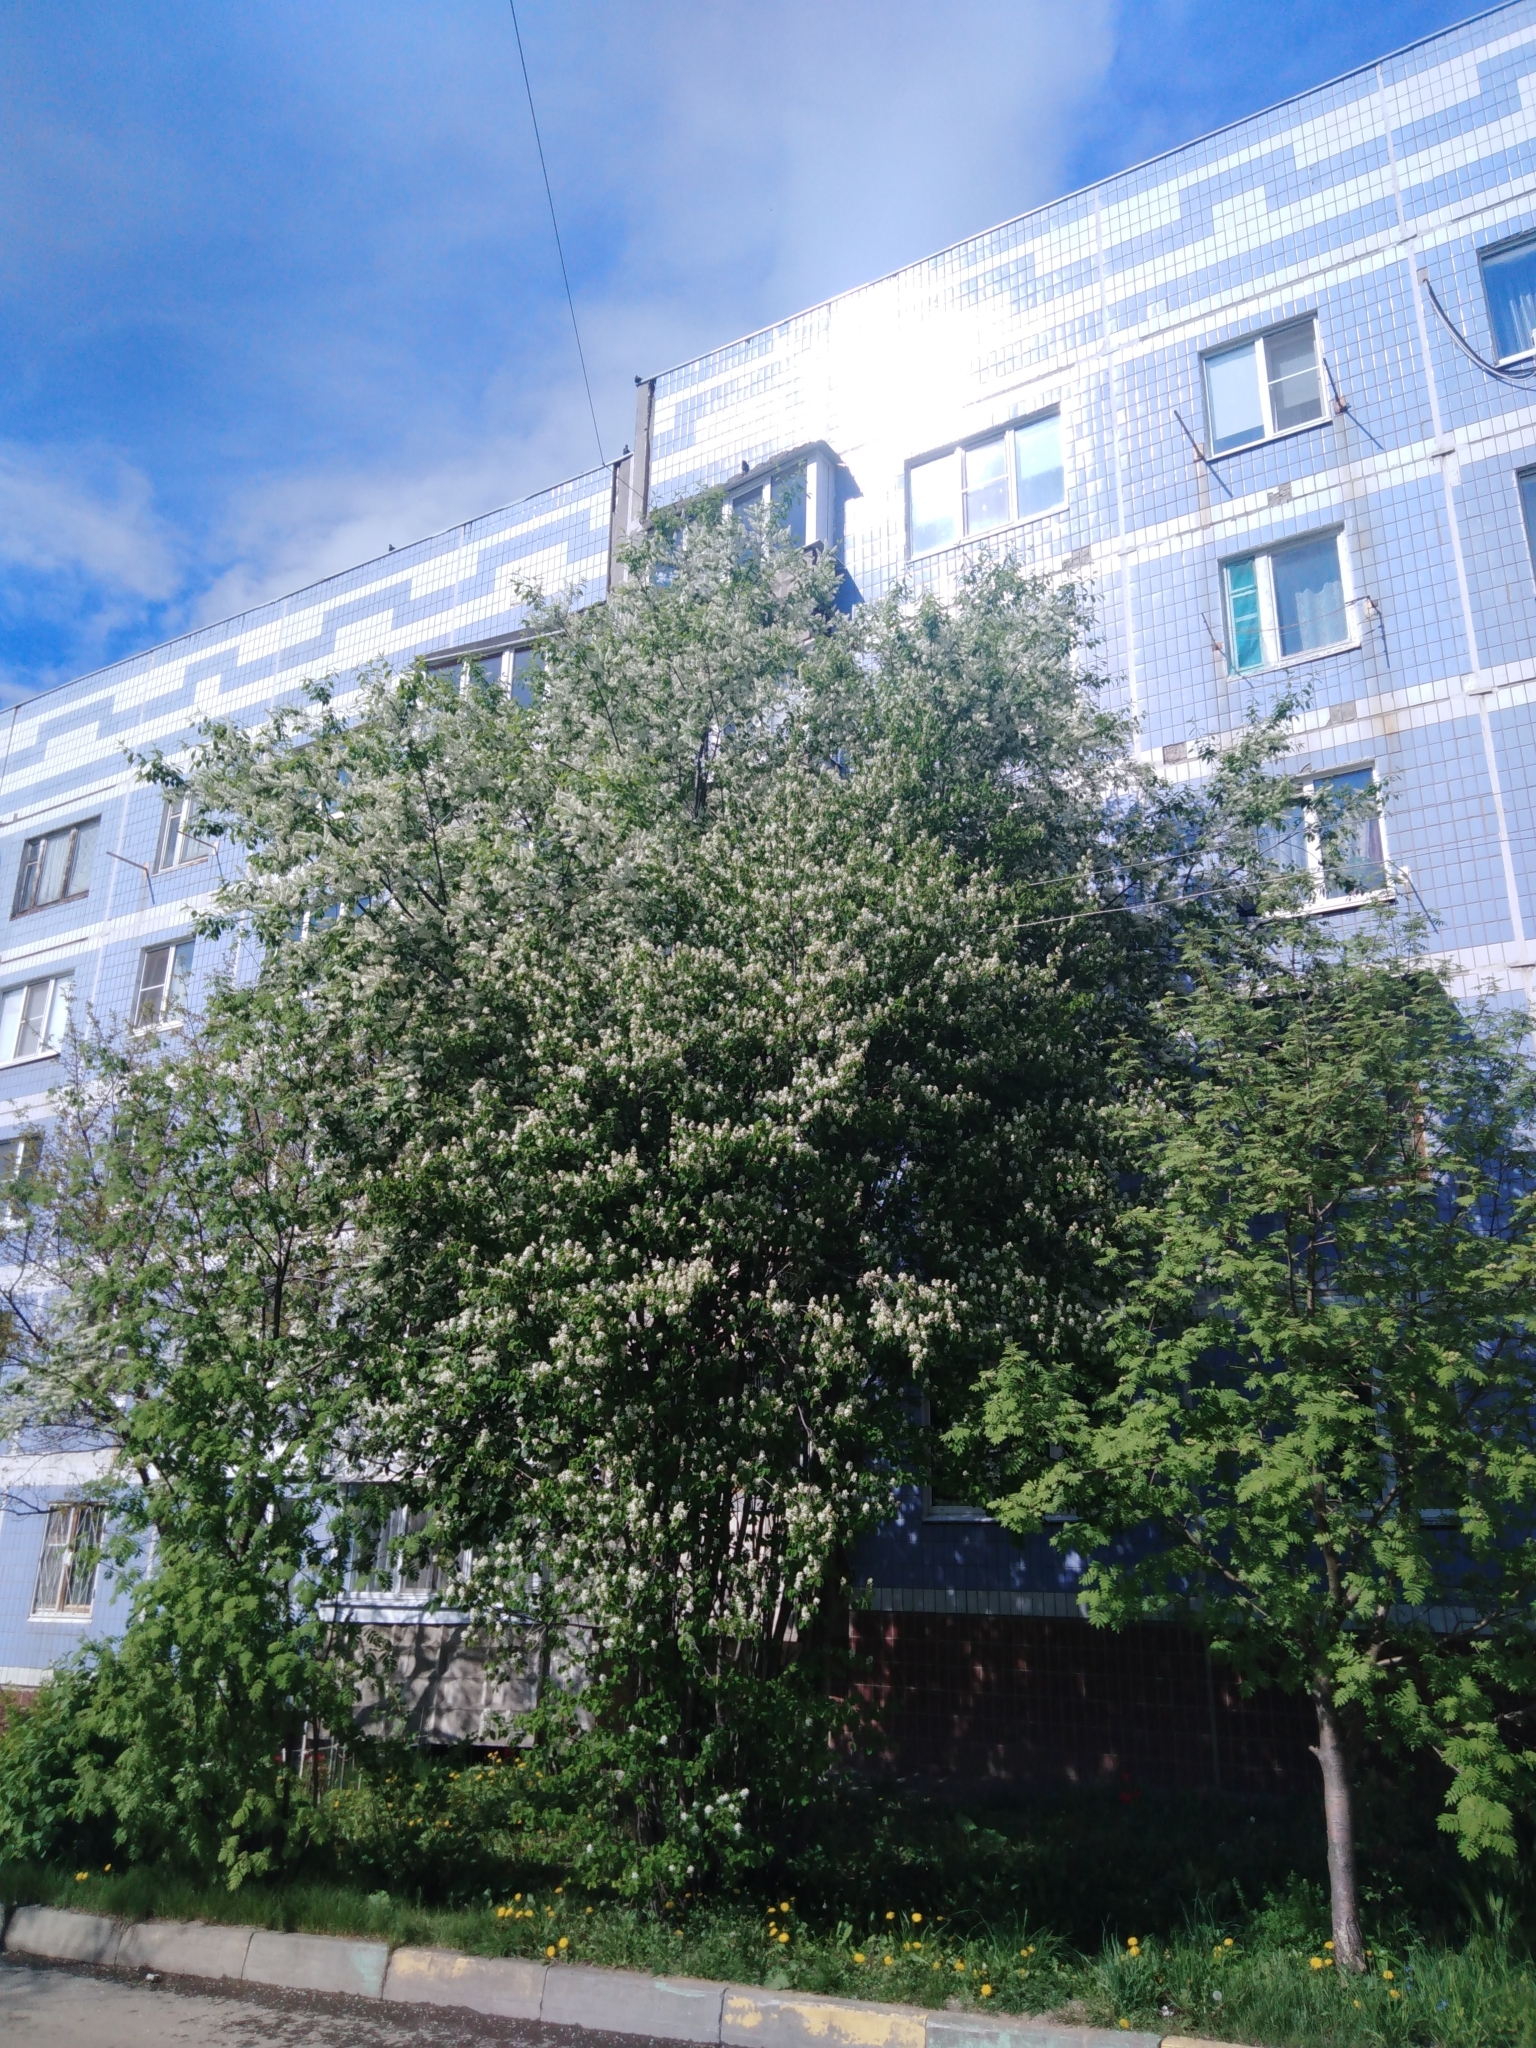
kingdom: Plantae
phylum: Tracheophyta
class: Magnoliopsida
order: Rosales
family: Rosaceae
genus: Prunus
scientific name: Prunus padus
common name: Bird cherry
